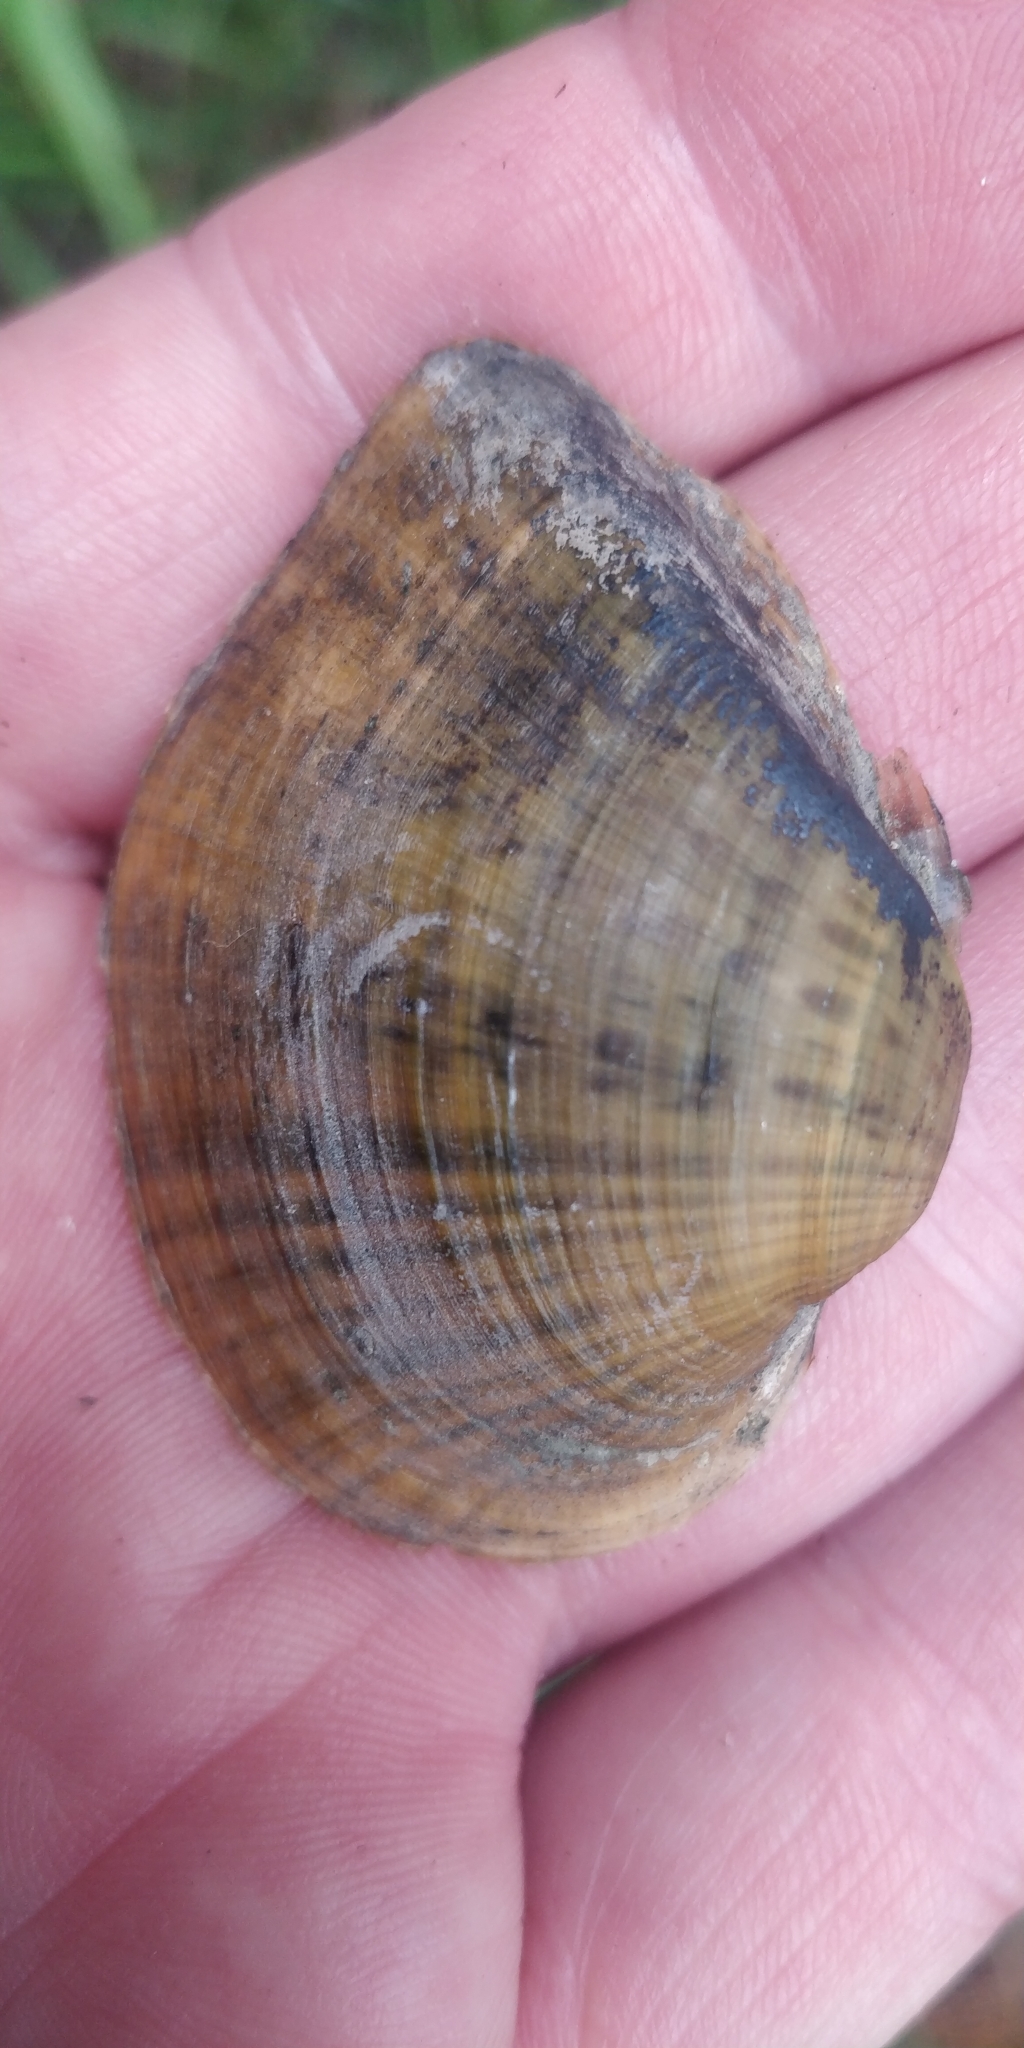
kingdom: Animalia
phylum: Mollusca
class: Bivalvia
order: Unionida
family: Unionidae
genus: Truncilla
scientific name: Truncilla truncata
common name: Deertoe
